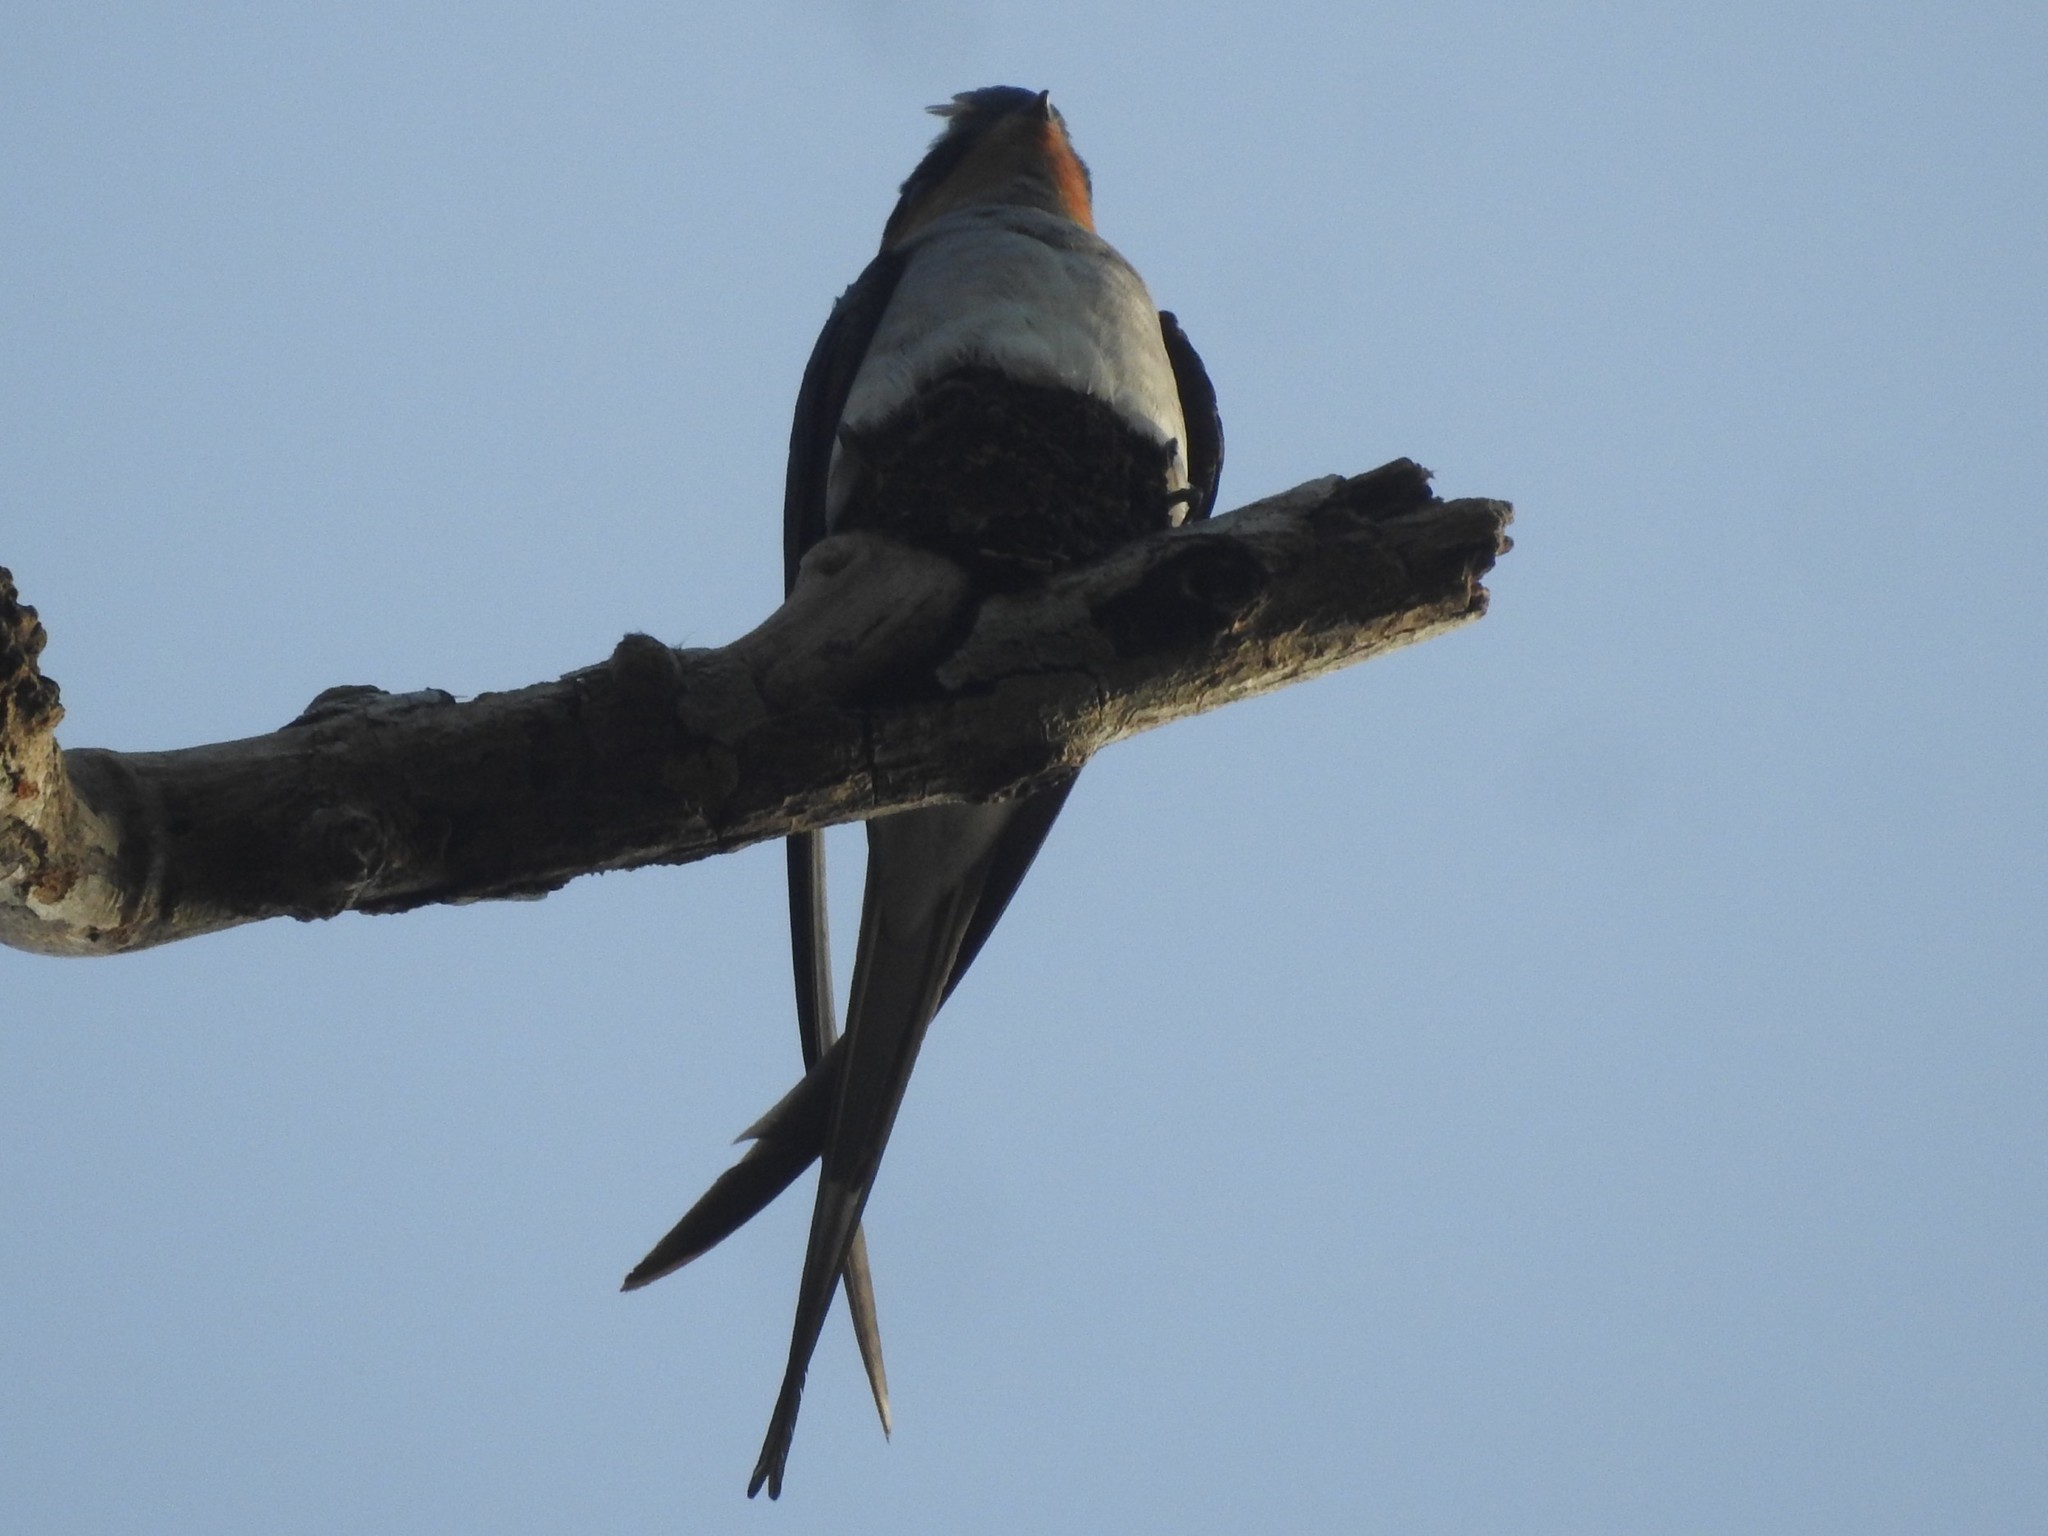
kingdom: Animalia
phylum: Chordata
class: Aves
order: Apodiformes
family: Hemiprocnidae
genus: Hemiprocne
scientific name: Hemiprocne coronata
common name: Crested treeswift
